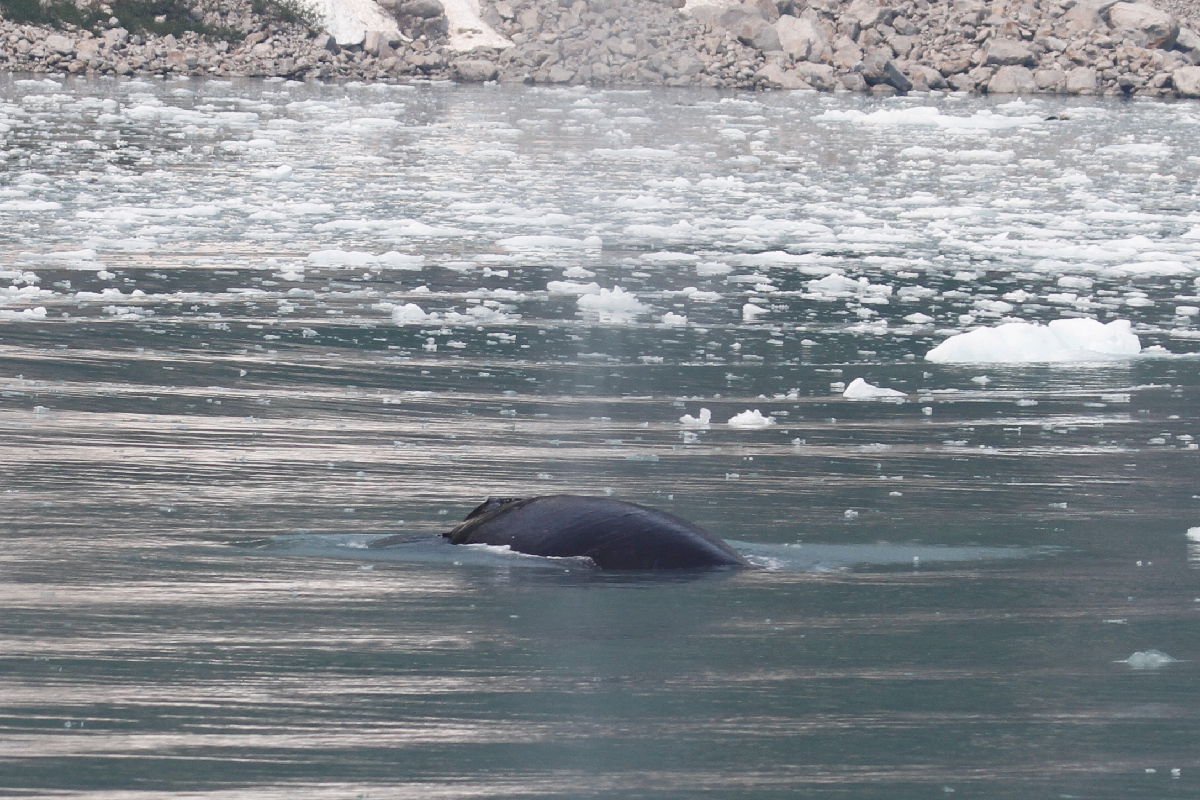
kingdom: Animalia
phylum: Chordata
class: Mammalia
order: Cetacea
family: Balaenopteridae
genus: Megaptera
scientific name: Megaptera novaeangliae
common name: Humpback whale
